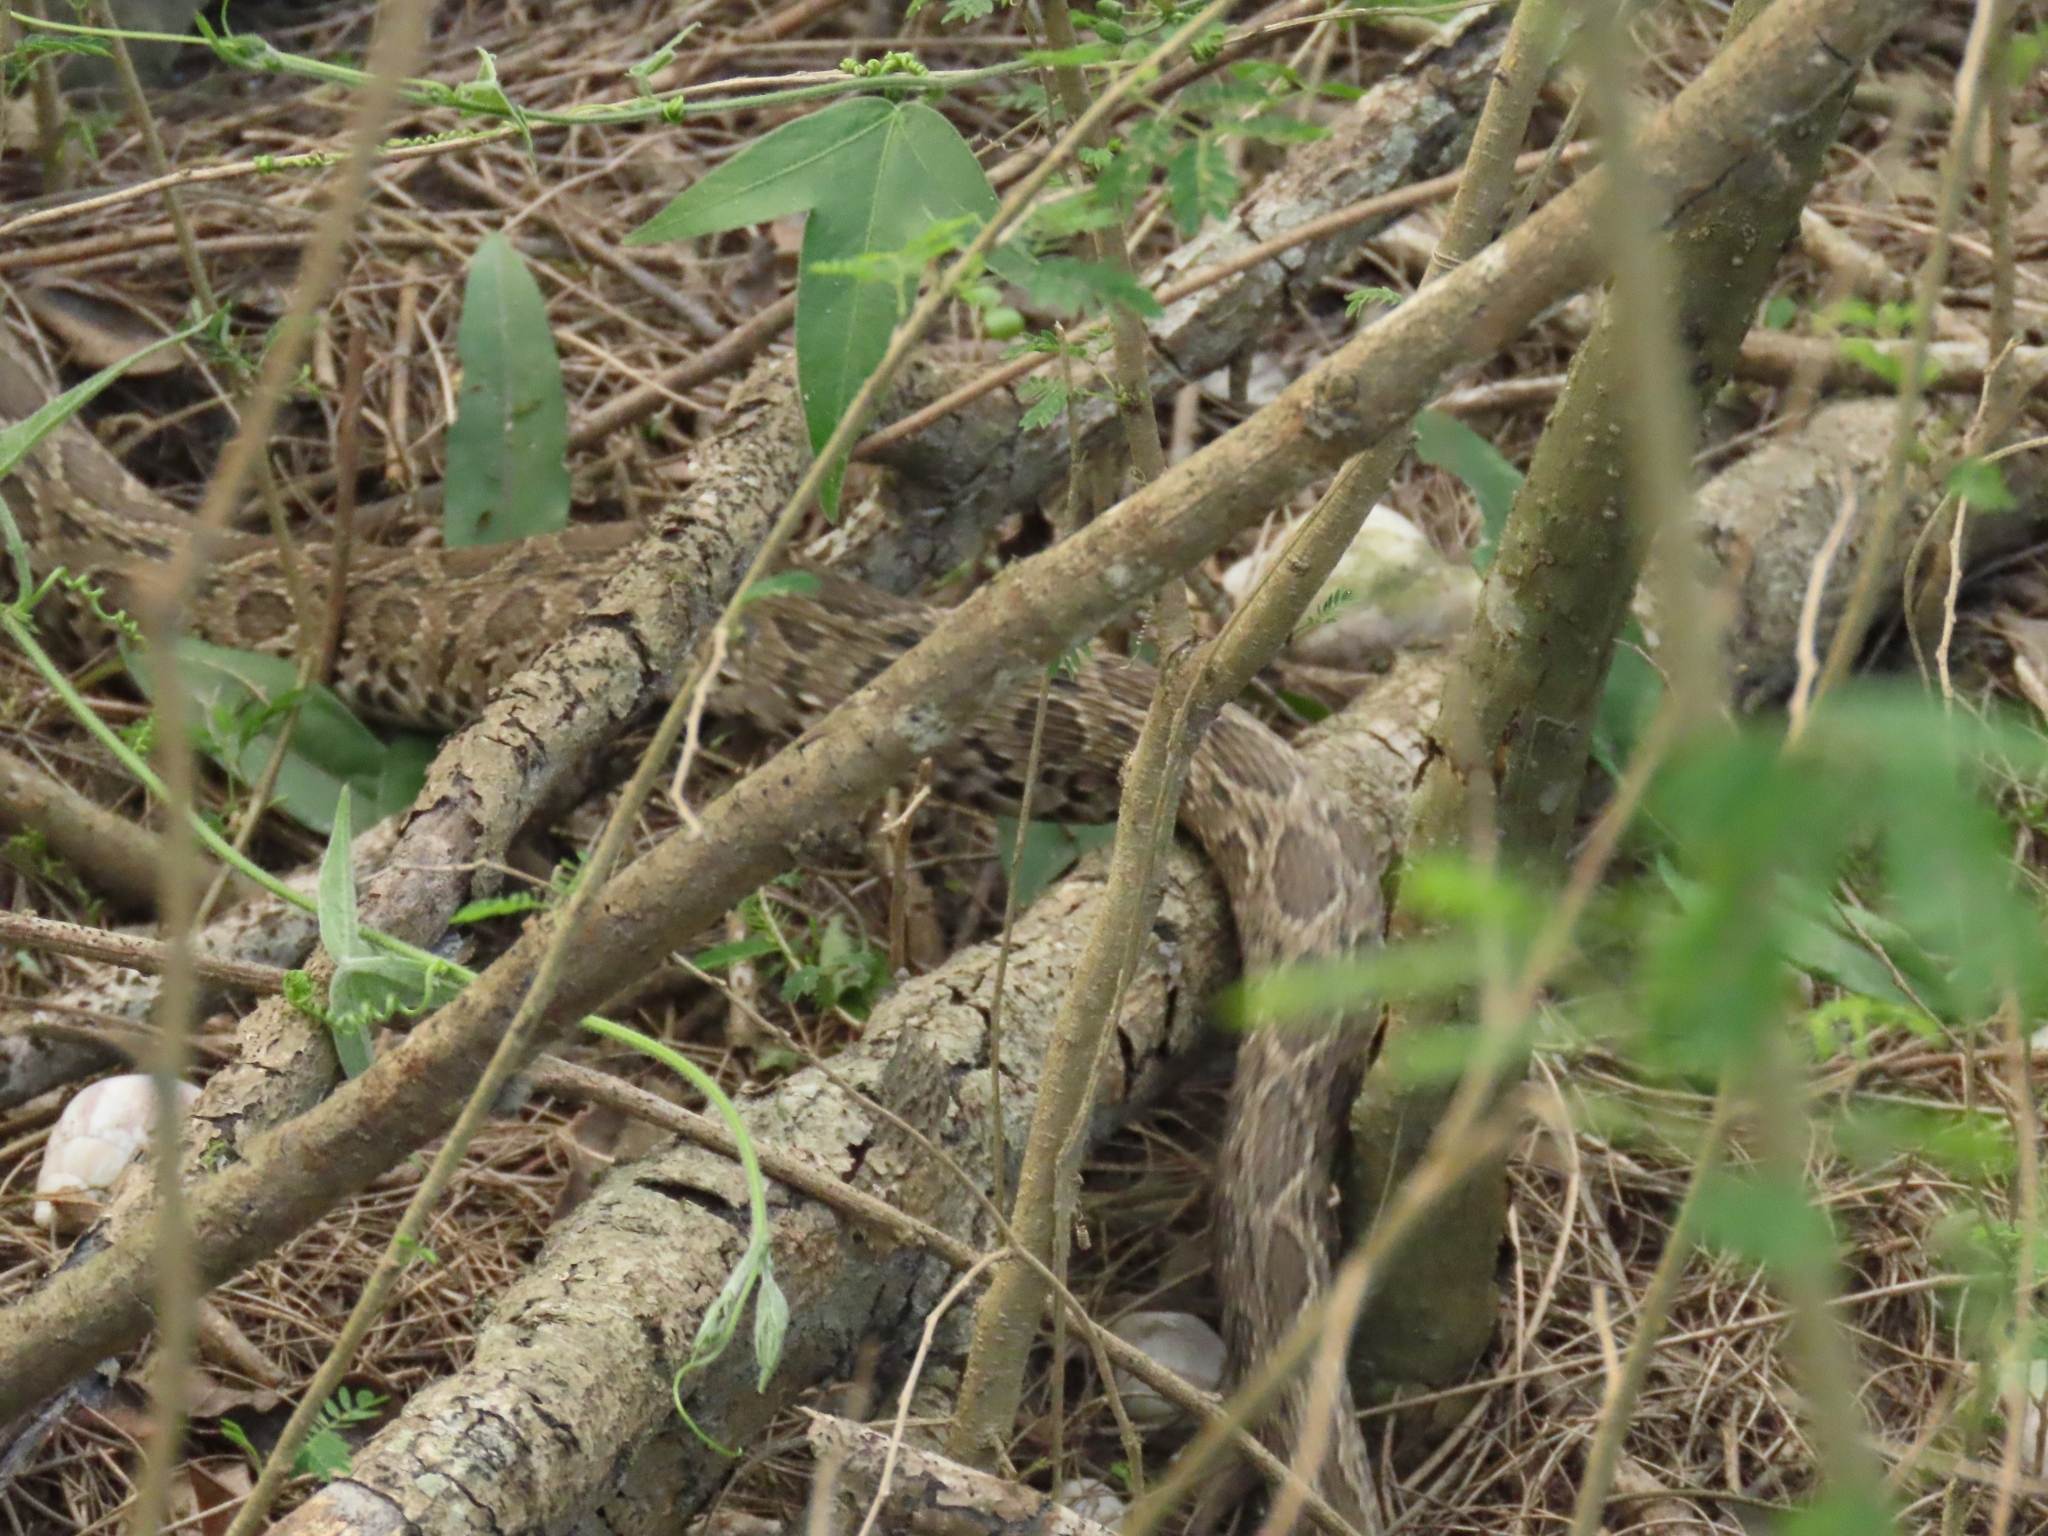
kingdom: Animalia
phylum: Chordata
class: Squamata
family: Viperidae
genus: Daboia
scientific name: Daboia siamensis
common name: Eastern russell's viper
